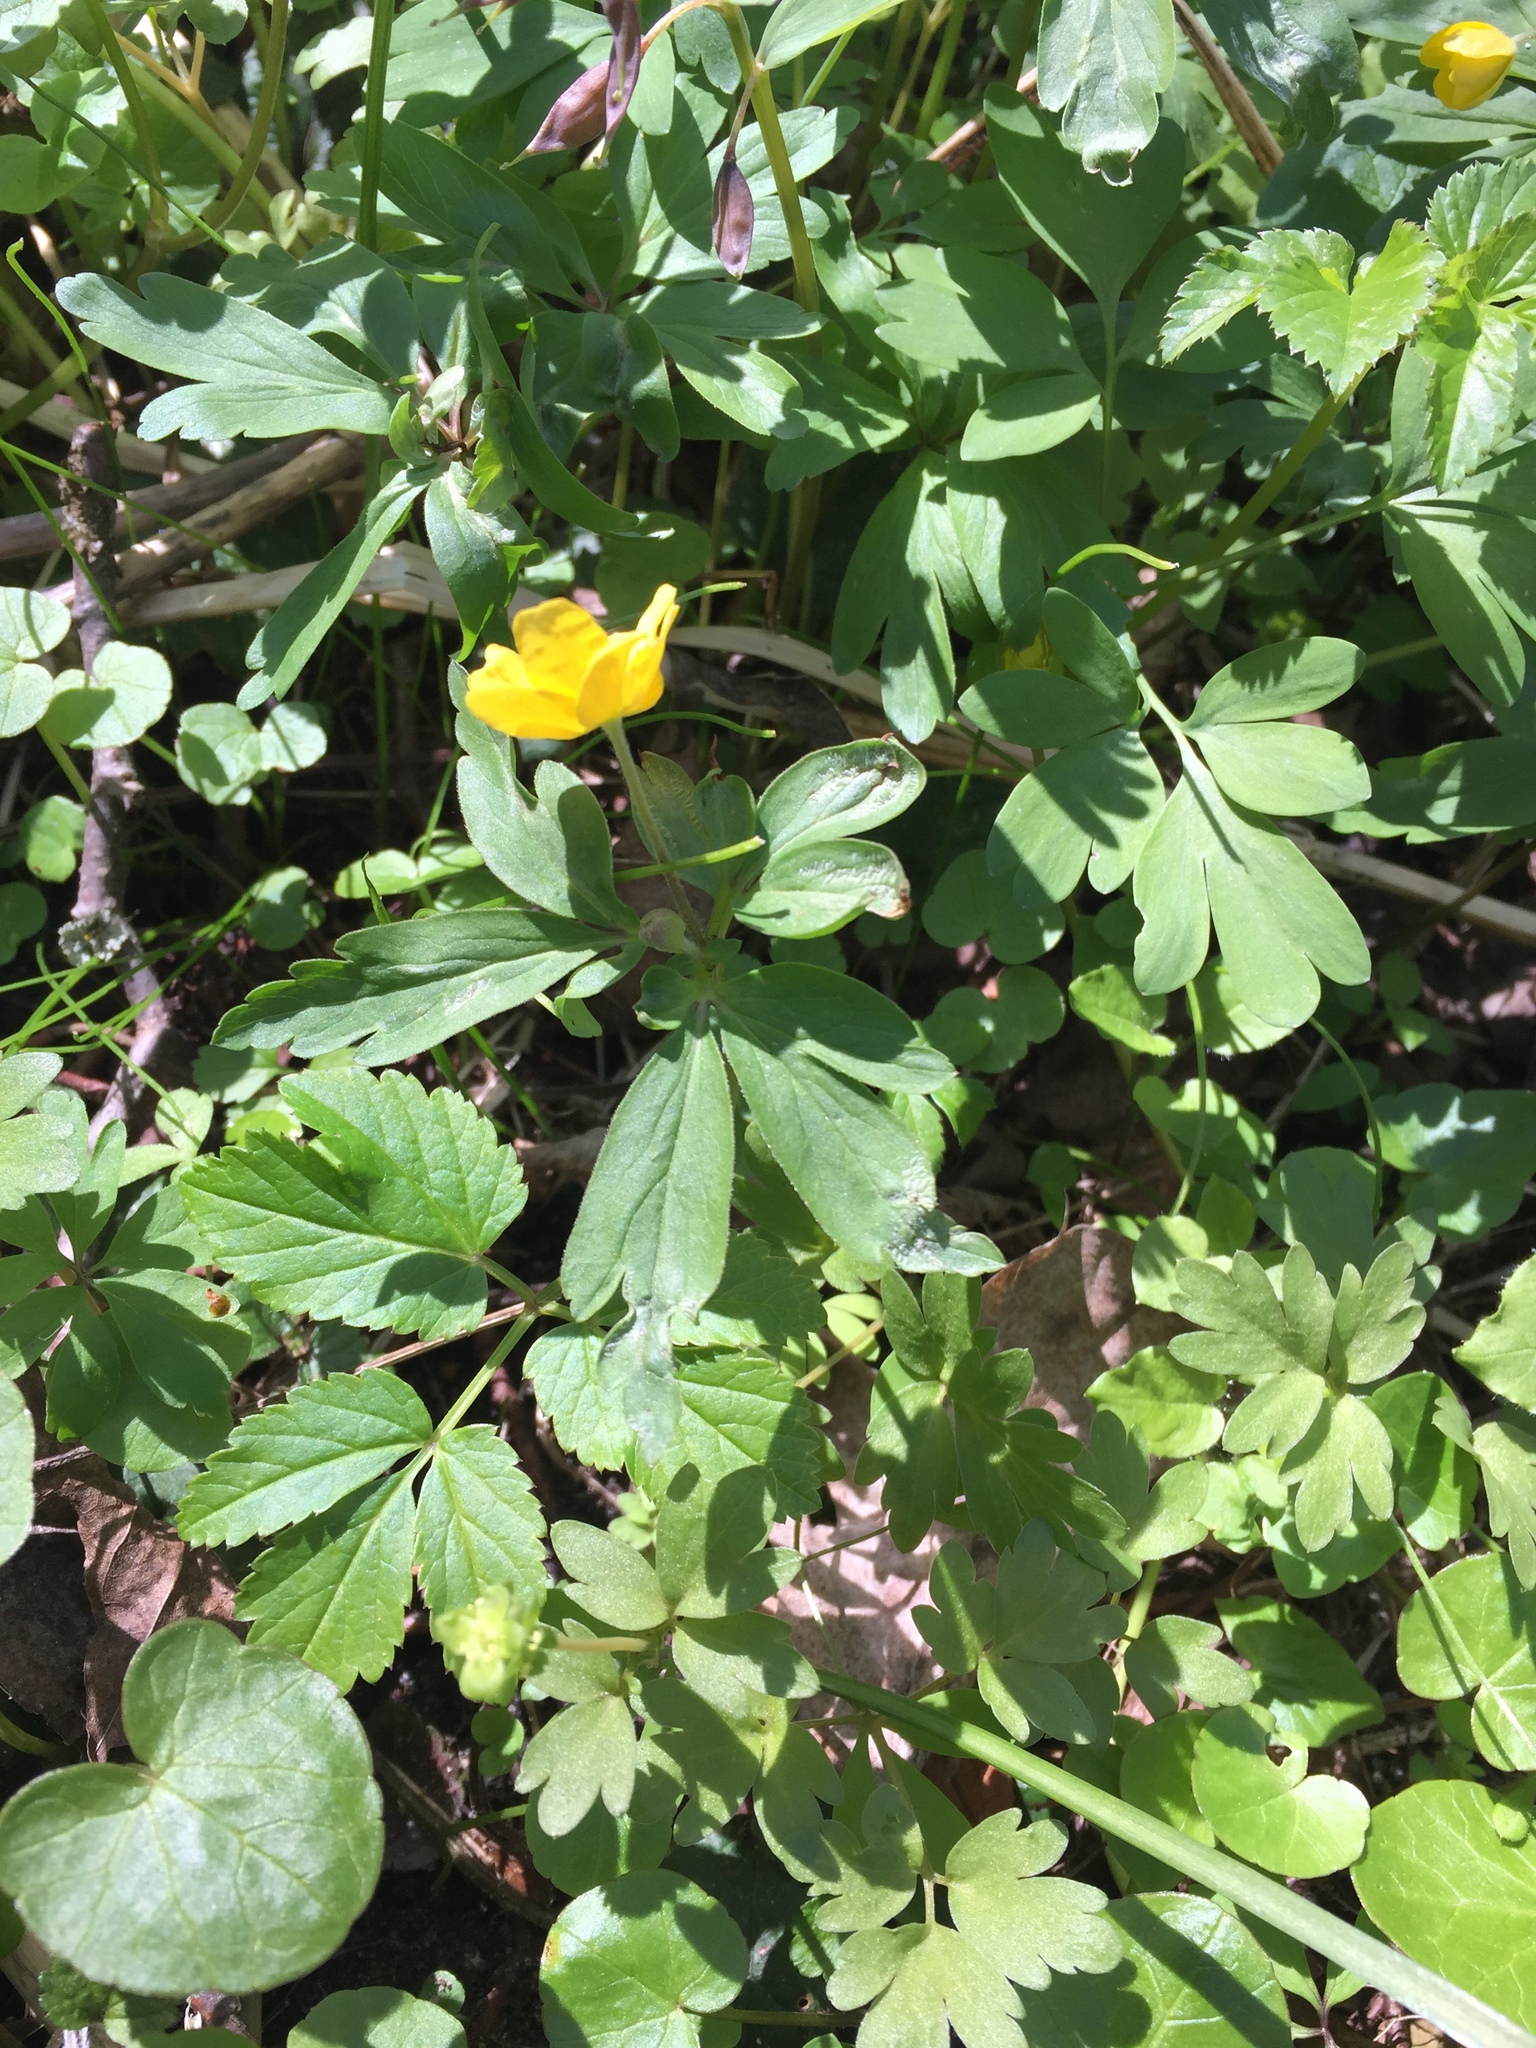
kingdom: Plantae
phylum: Tracheophyta
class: Magnoliopsida
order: Ranunculales
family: Ranunculaceae
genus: Anemone
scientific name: Anemone ranunculoides
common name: Yellow anemone
